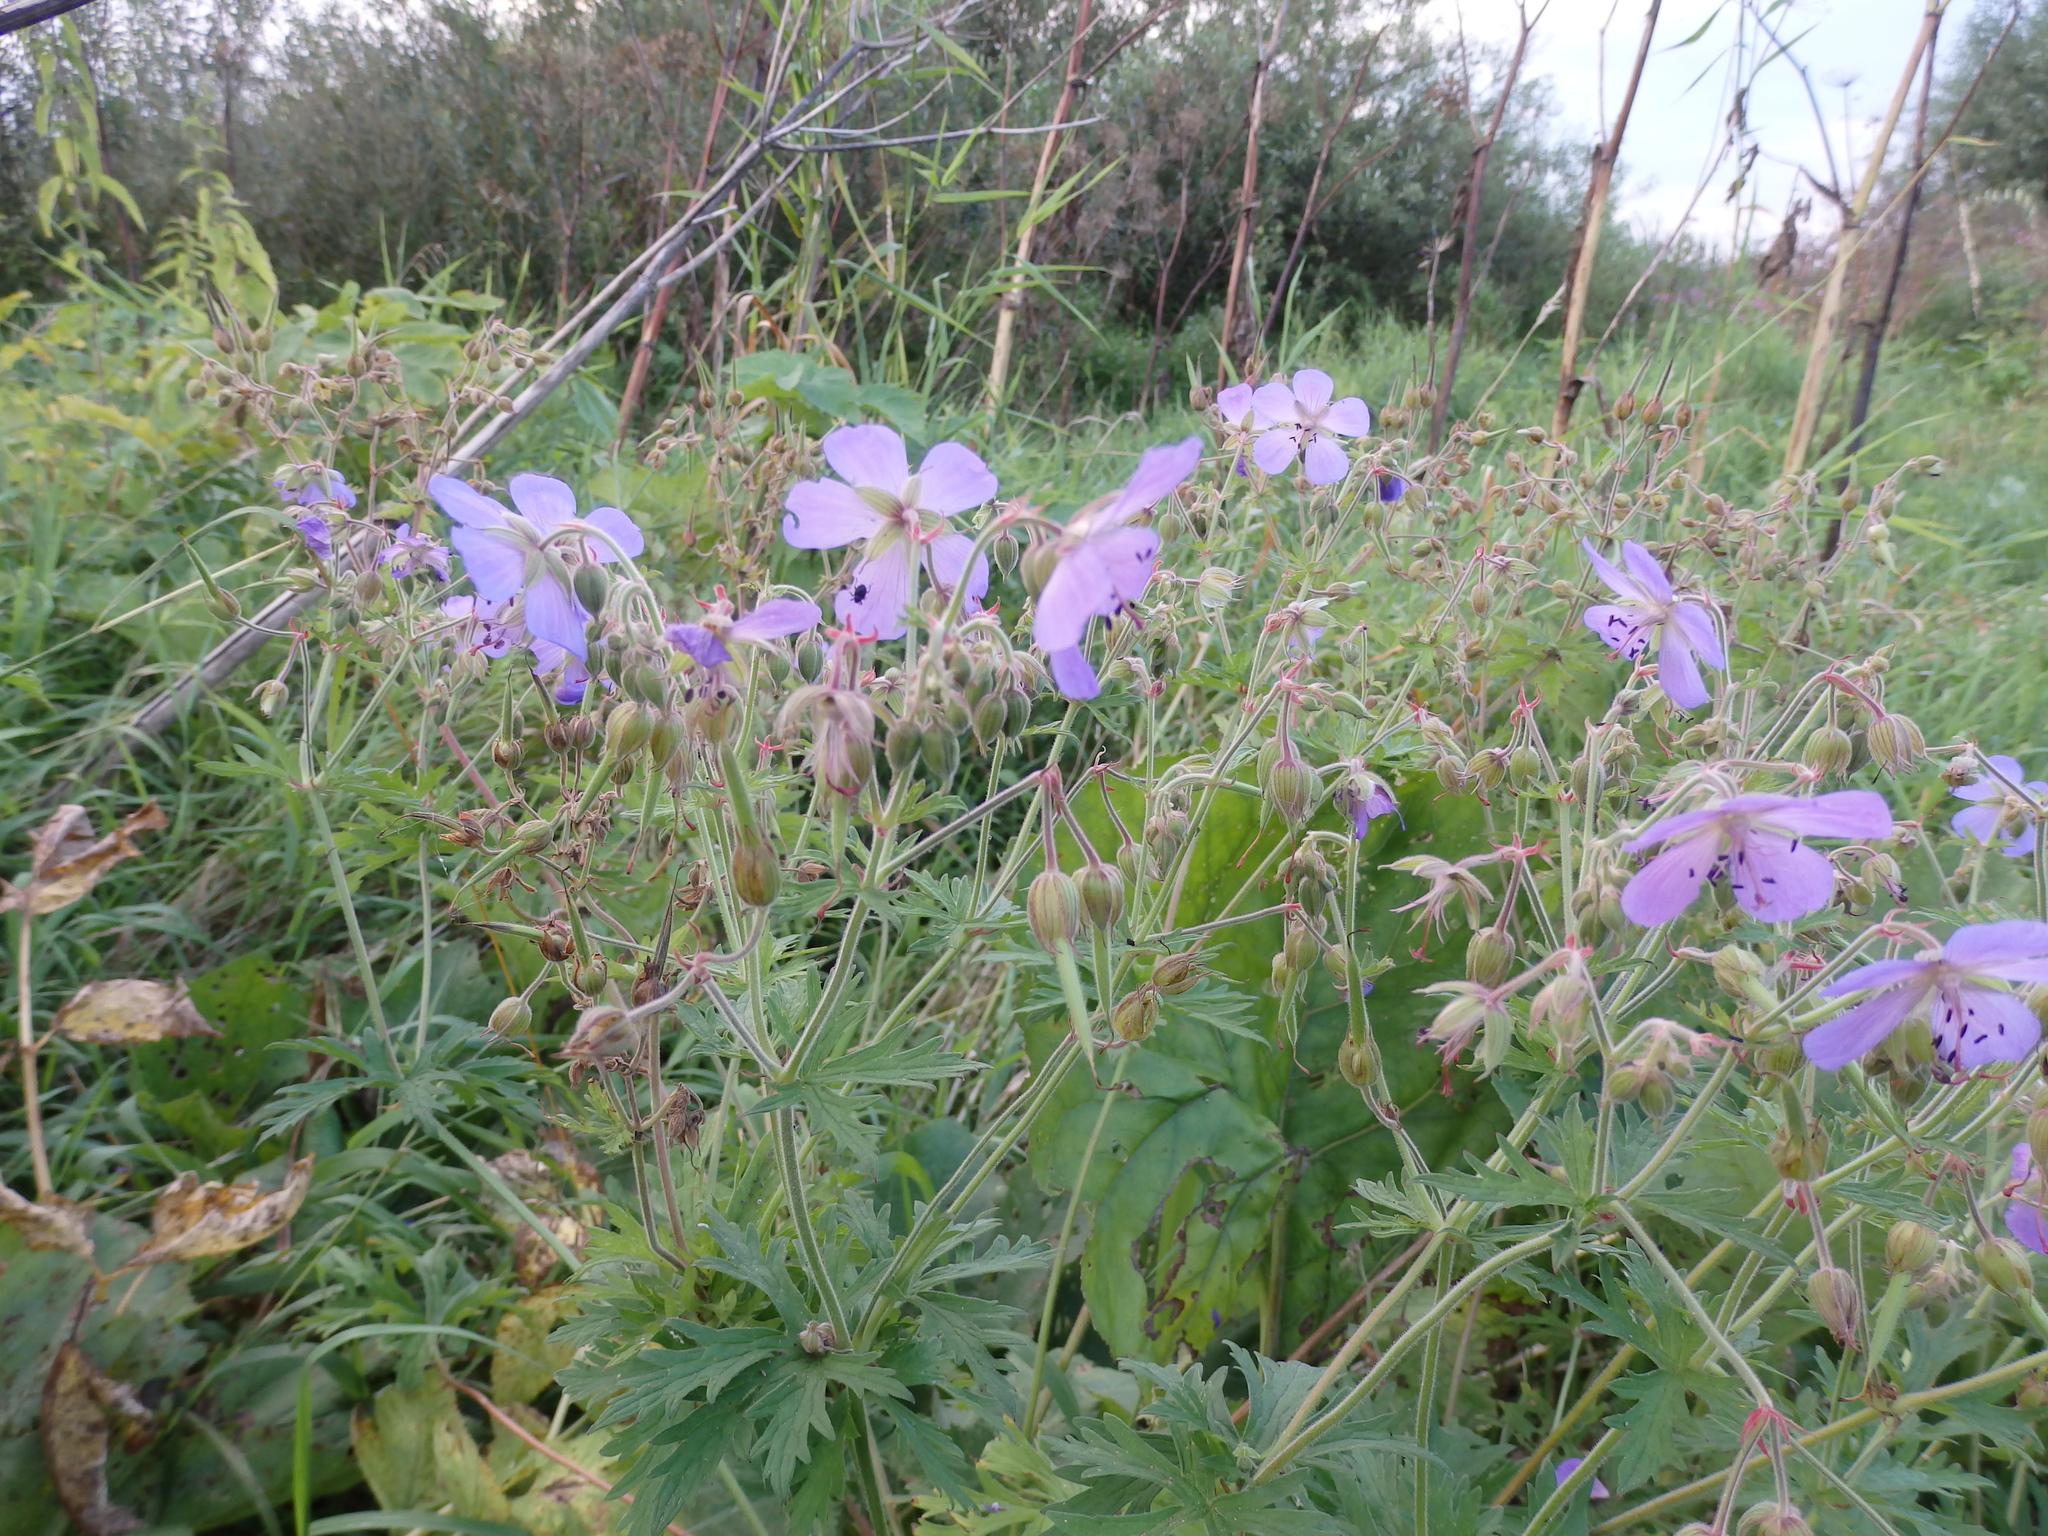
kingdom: Plantae
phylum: Tracheophyta
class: Magnoliopsida
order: Geraniales
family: Geraniaceae
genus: Geranium
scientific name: Geranium pratense
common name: Meadow crane's-bill
